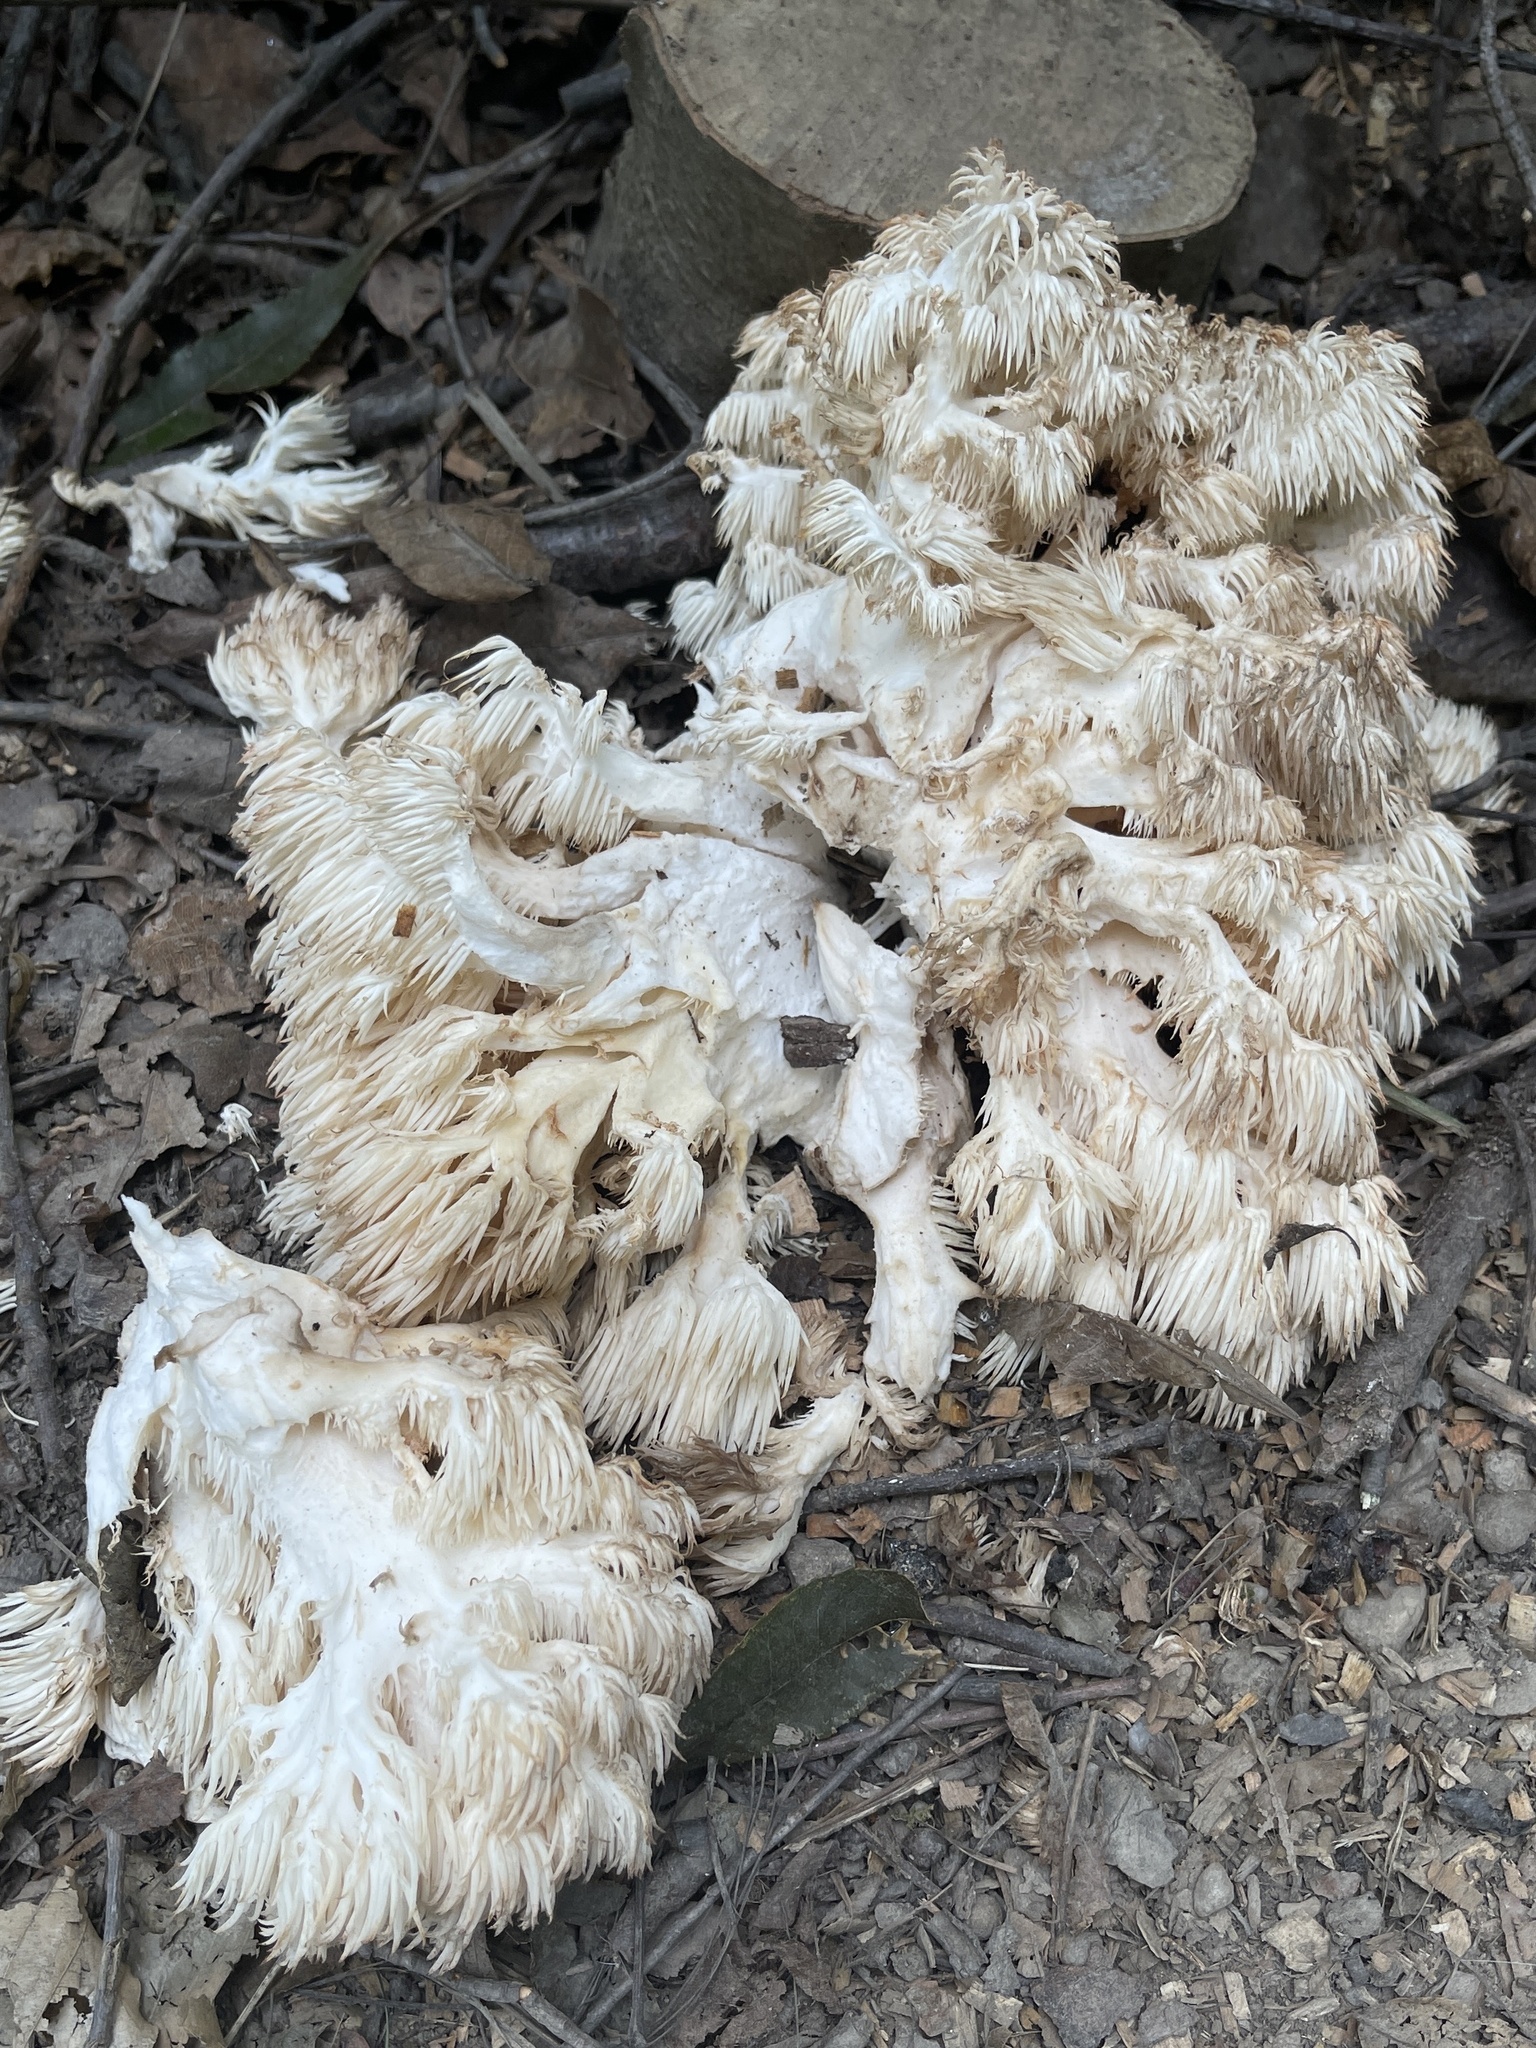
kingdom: Fungi
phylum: Basidiomycota
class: Agaricomycetes
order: Russulales
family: Hericiaceae
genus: Hericium
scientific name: Hericium americanum
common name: Bear's head tooth
